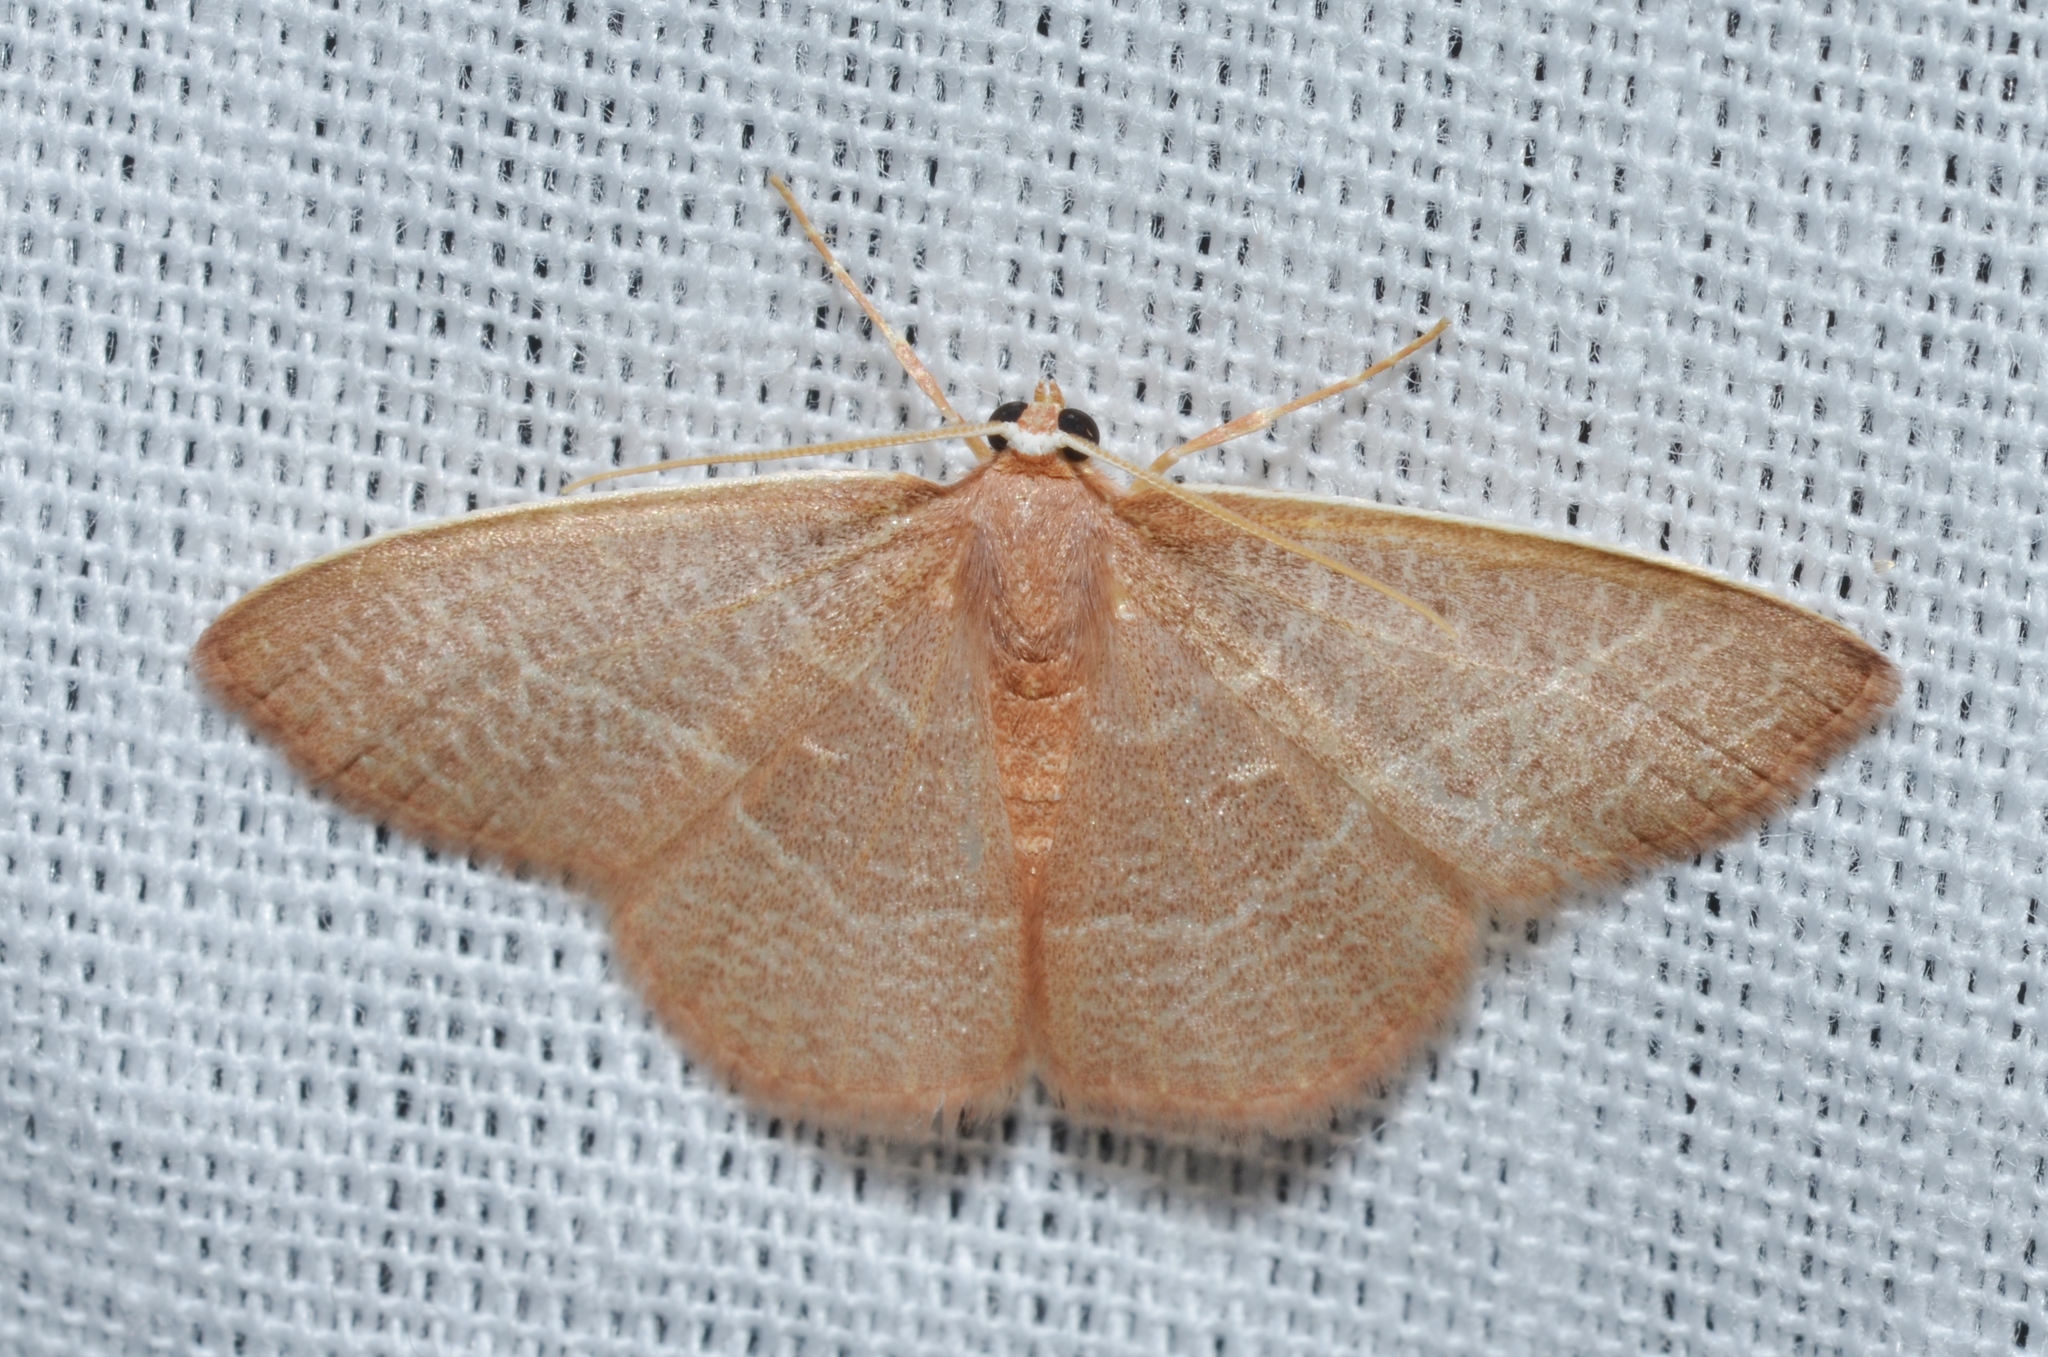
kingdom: Animalia
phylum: Arthropoda
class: Insecta
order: Lepidoptera
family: Geometridae
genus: Nemoria
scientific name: Nemoria bistriaria
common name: Red-fringed emerald
